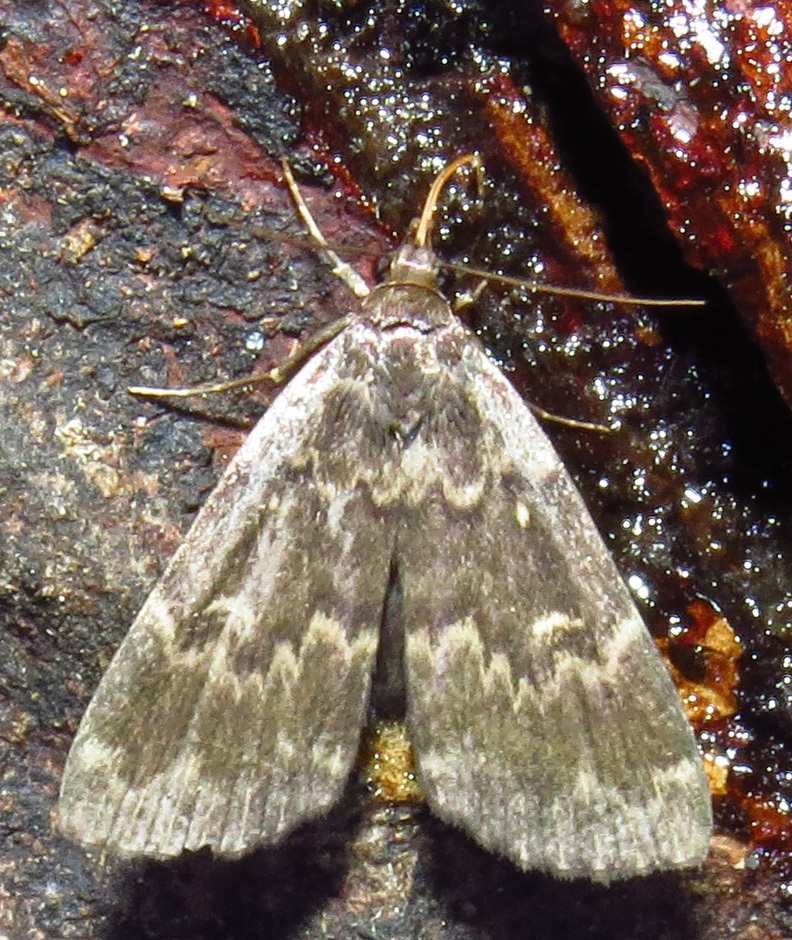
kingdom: Animalia
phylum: Arthropoda
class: Insecta
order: Lepidoptera
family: Erebidae
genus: Idia
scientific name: Idia lubricalis
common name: Twin-striped tabby
